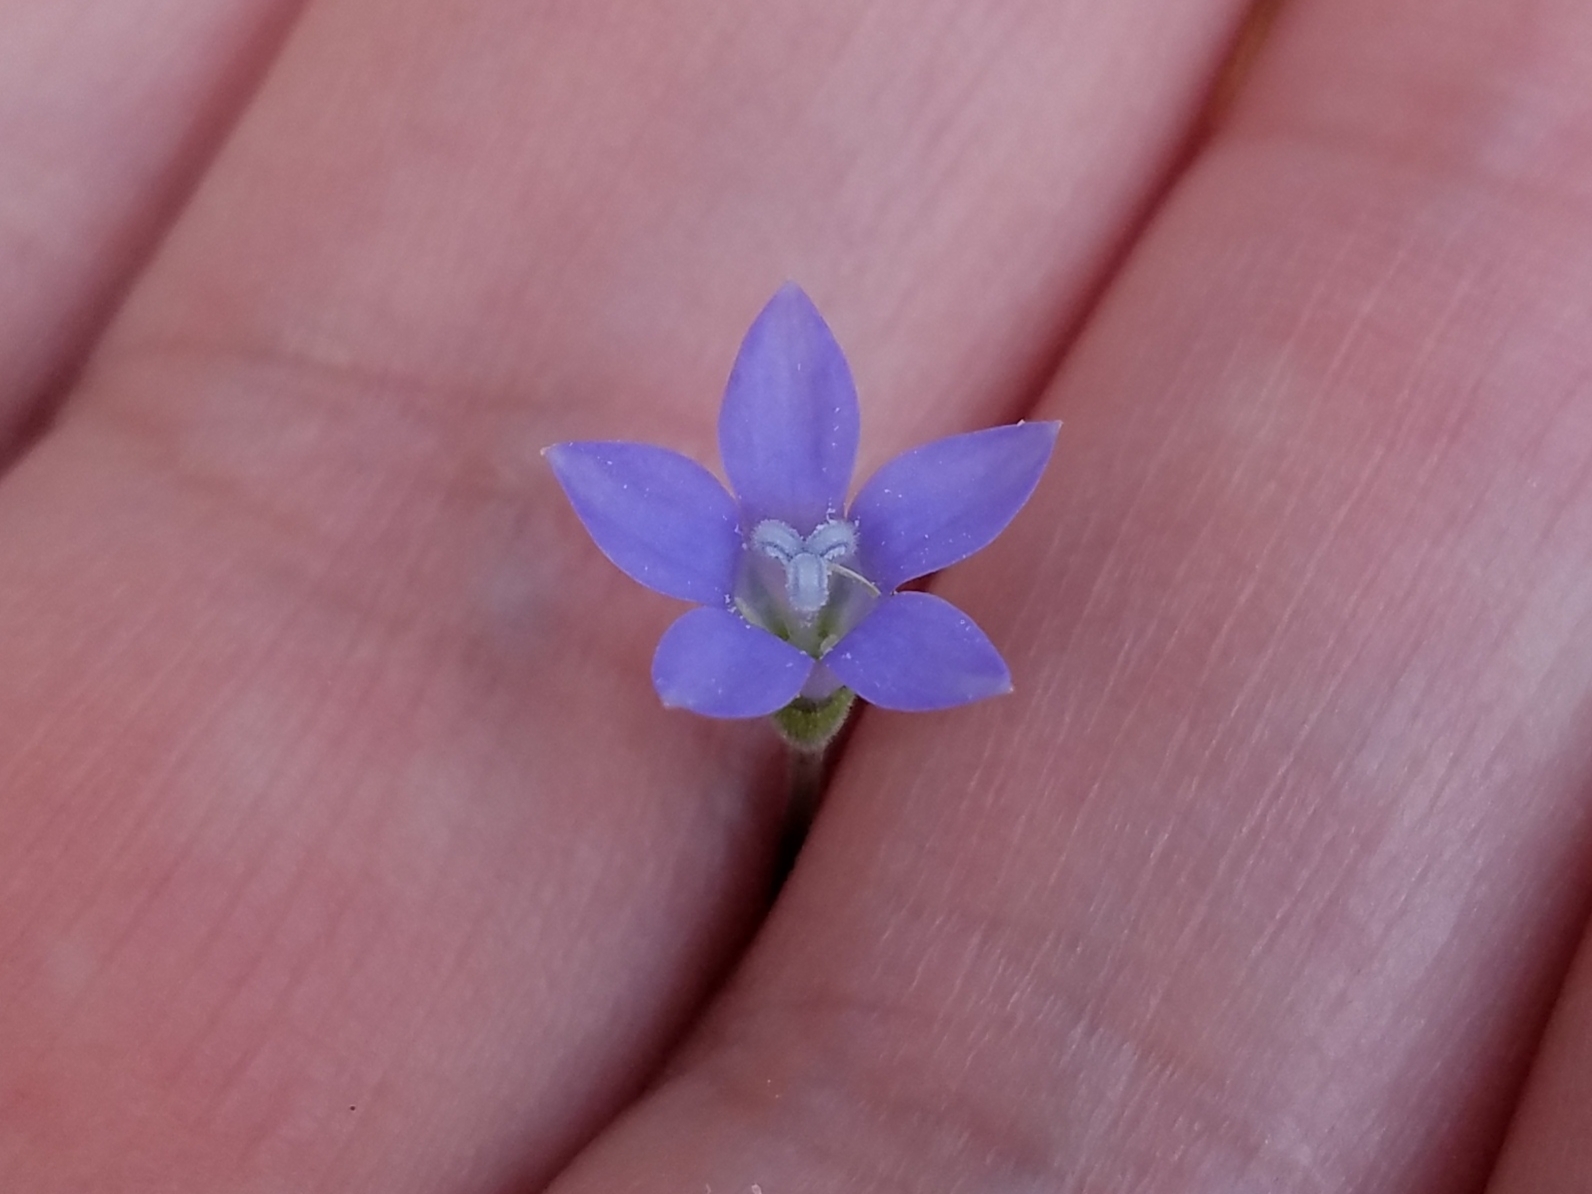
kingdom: Plantae
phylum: Tracheophyta
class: Magnoliopsida
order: Asterales
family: Campanulaceae
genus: Wahlenbergia
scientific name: Wahlenbergia marginata
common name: Southern rockbell
